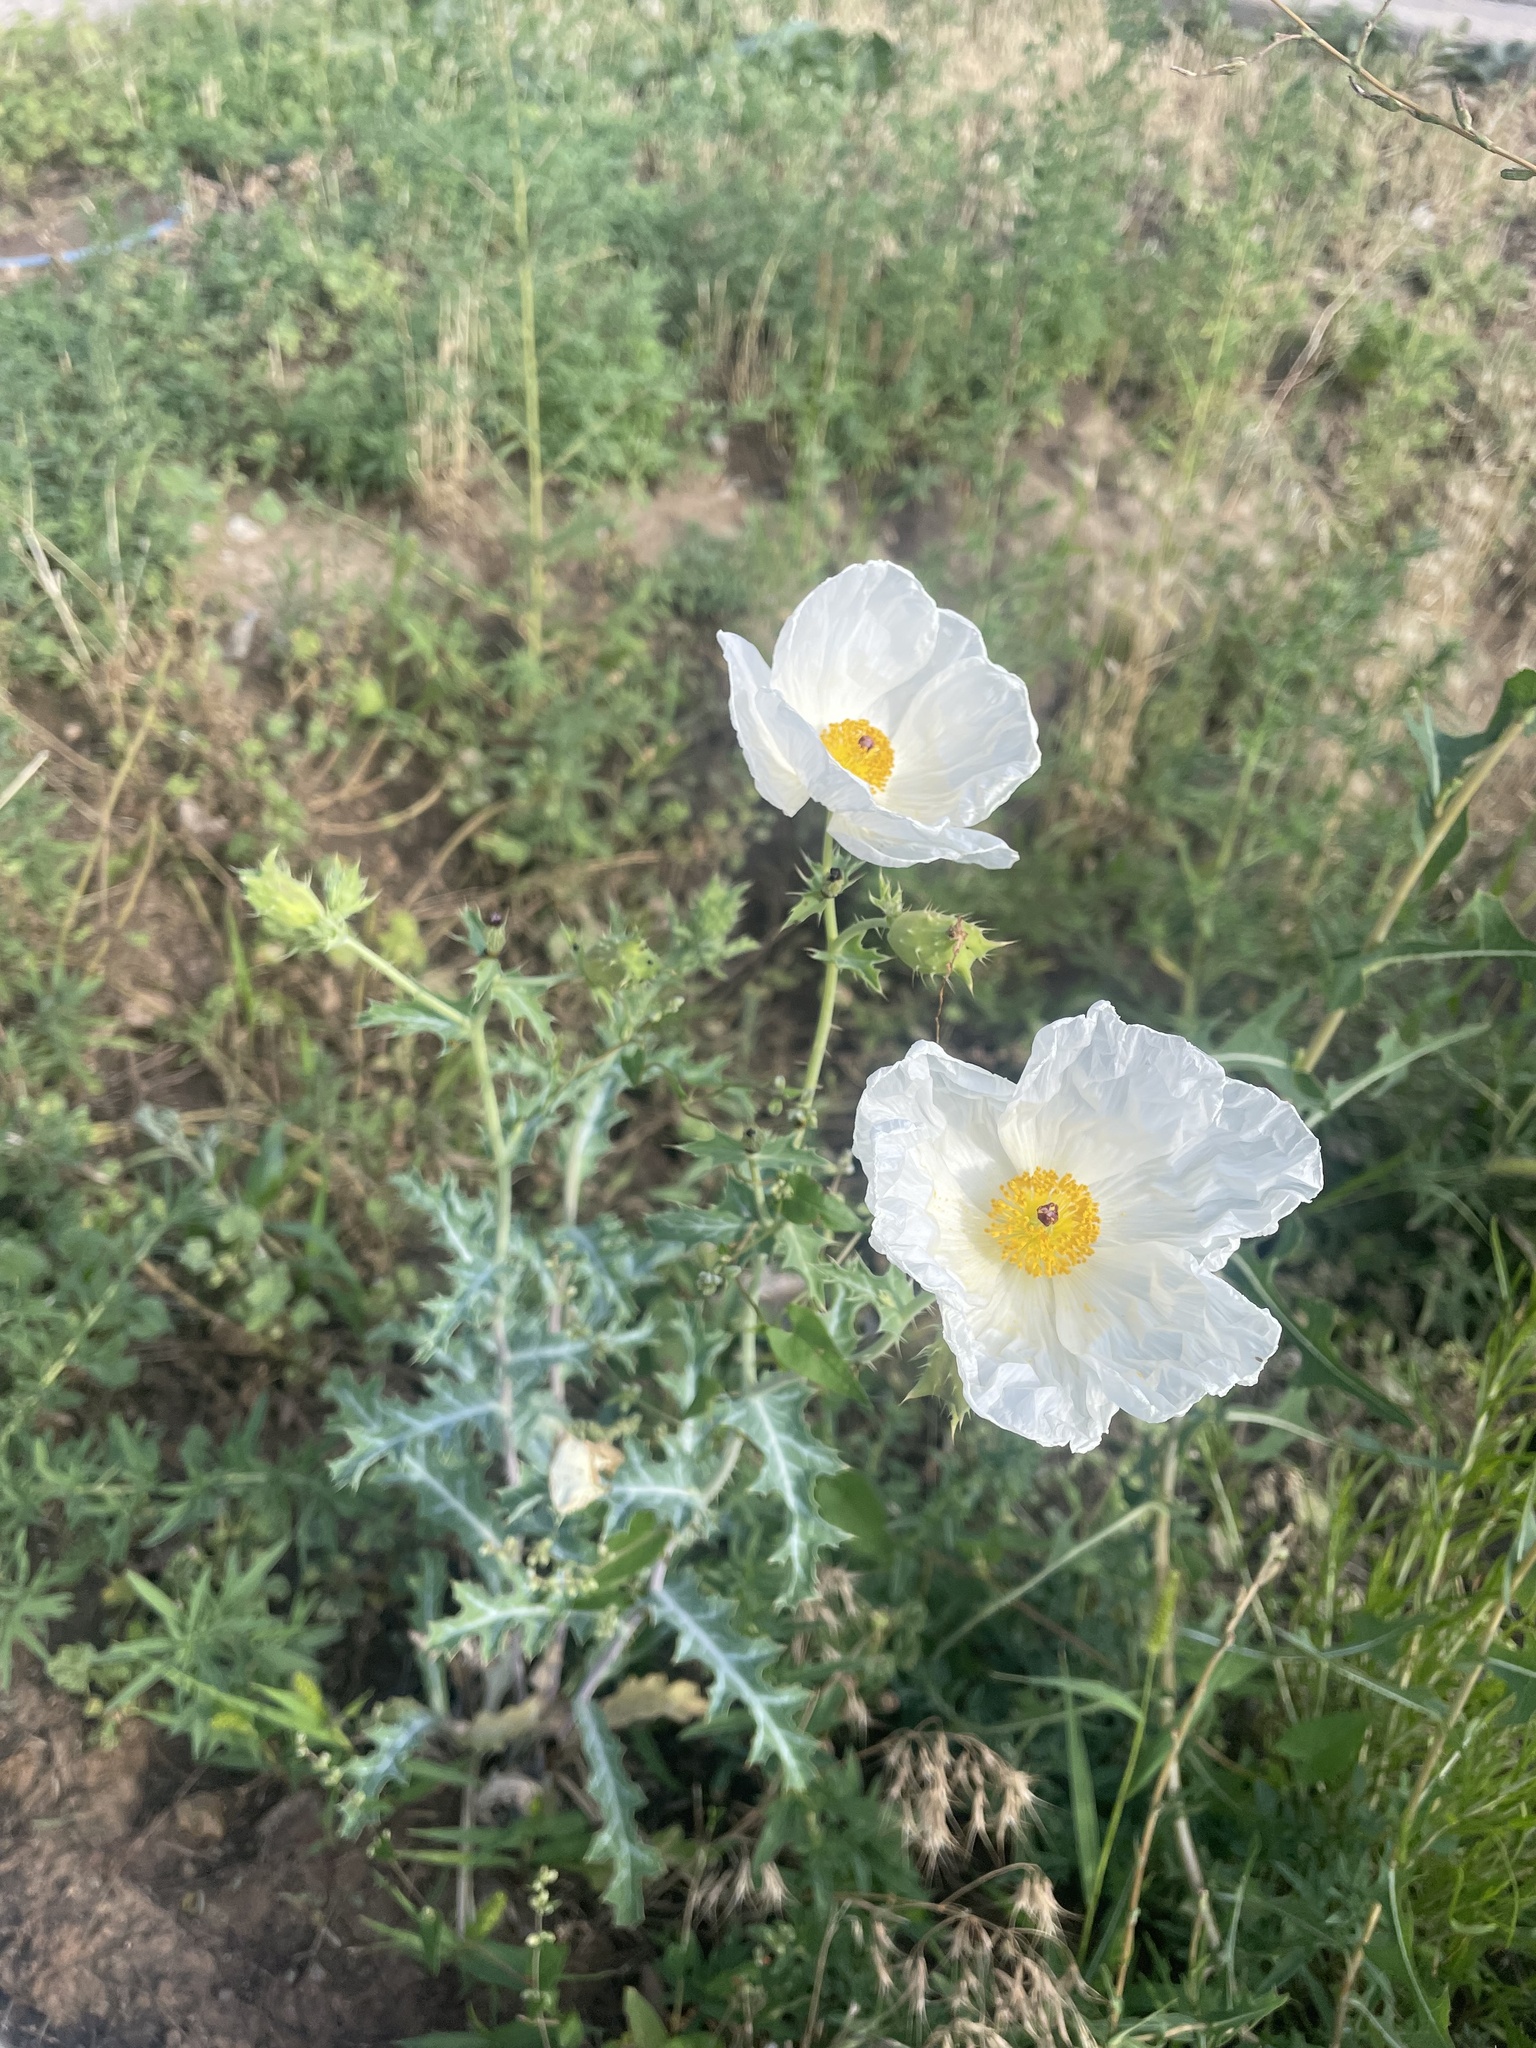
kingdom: Plantae
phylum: Tracheophyta
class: Magnoliopsida
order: Ranunculales
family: Papaveraceae
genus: Argemone
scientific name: Argemone polyanthemos
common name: Plains prickly-poppy
